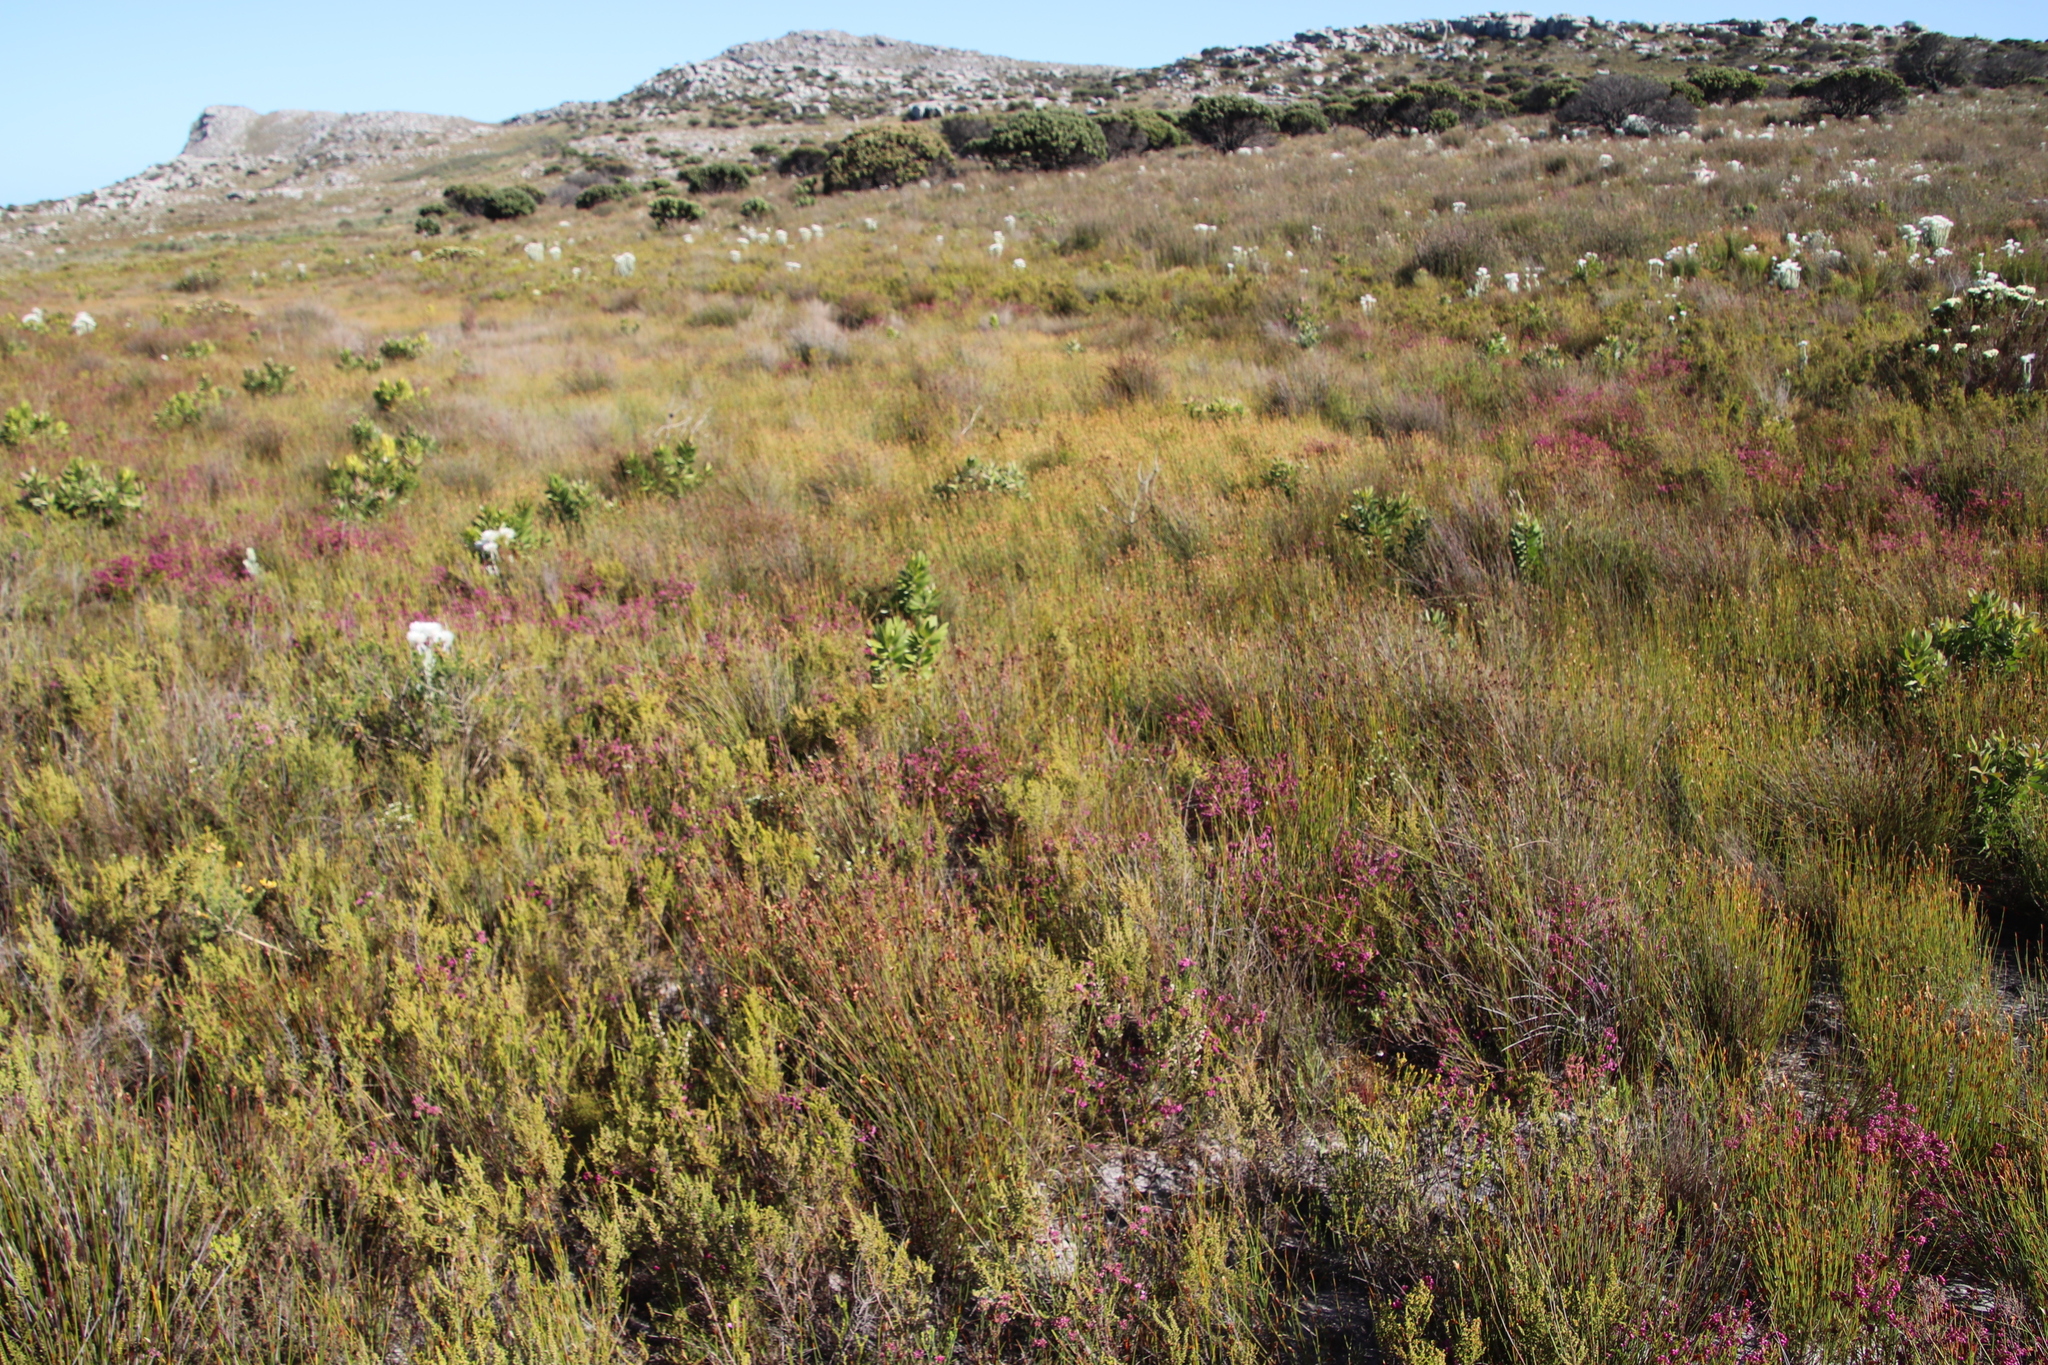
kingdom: Plantae
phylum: Tracheophyta
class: Magnoliopsida
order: Ericales
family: Ericaceae
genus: Erica
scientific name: Erica multumbellifera
